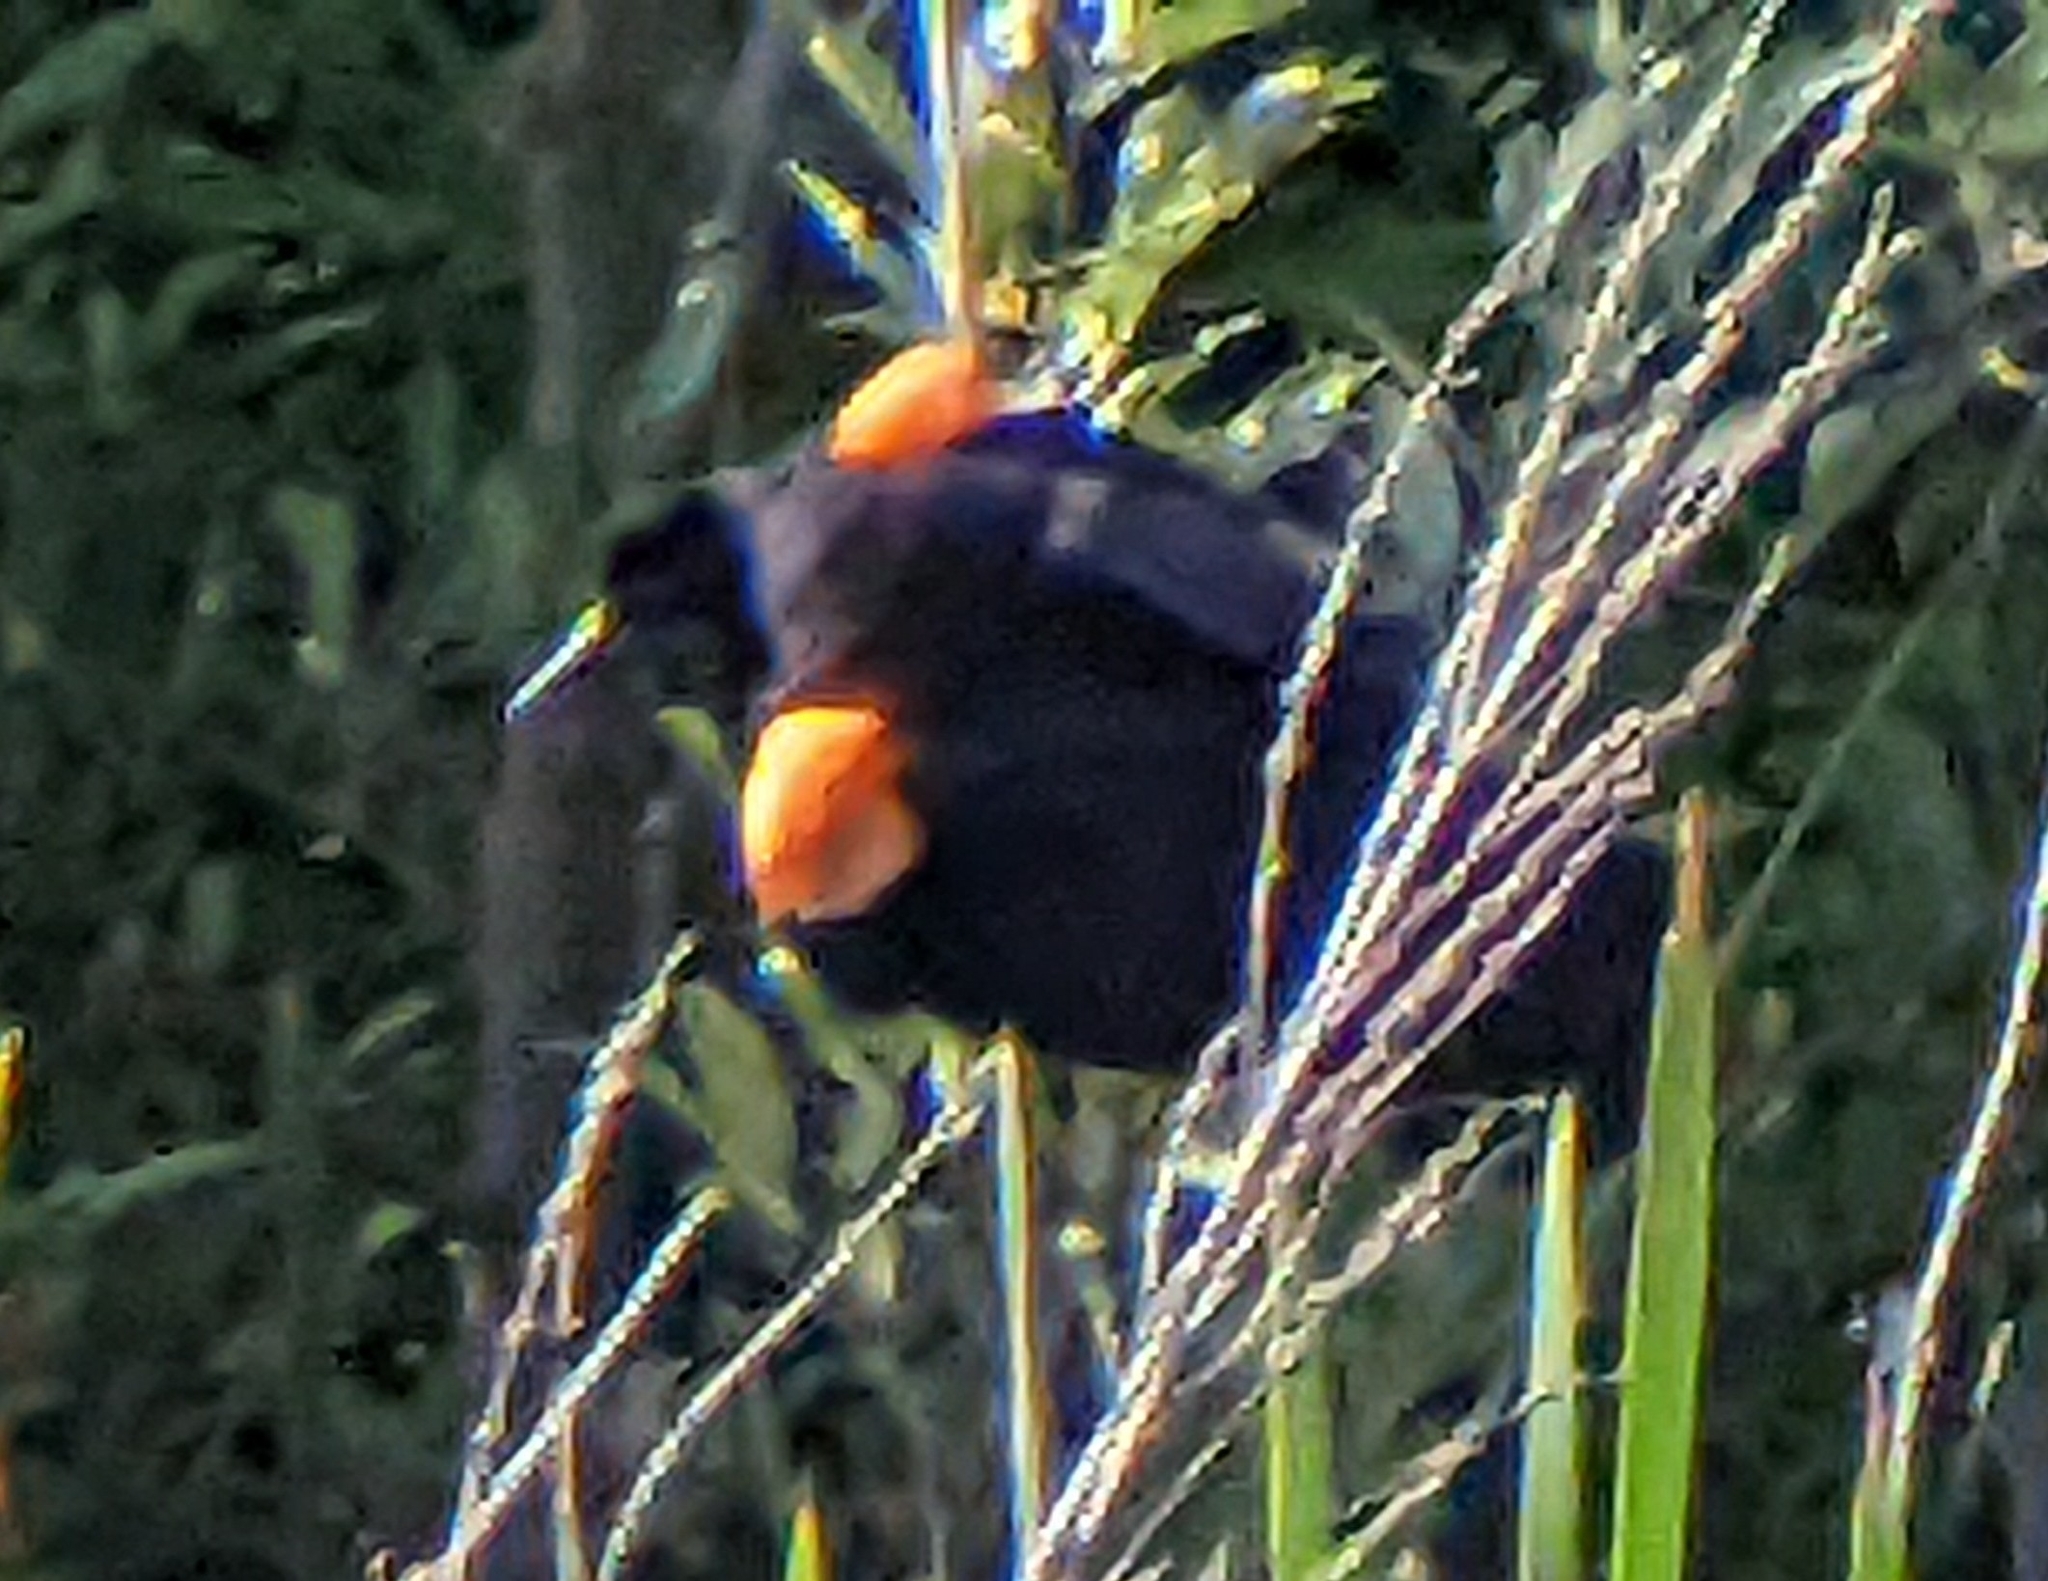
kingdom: Animalia
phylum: Chordata
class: Aves
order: Passeriformes
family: Icteridae
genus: Agelaius
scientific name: Agelaius phoeniceus
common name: Red-winged blackbird
